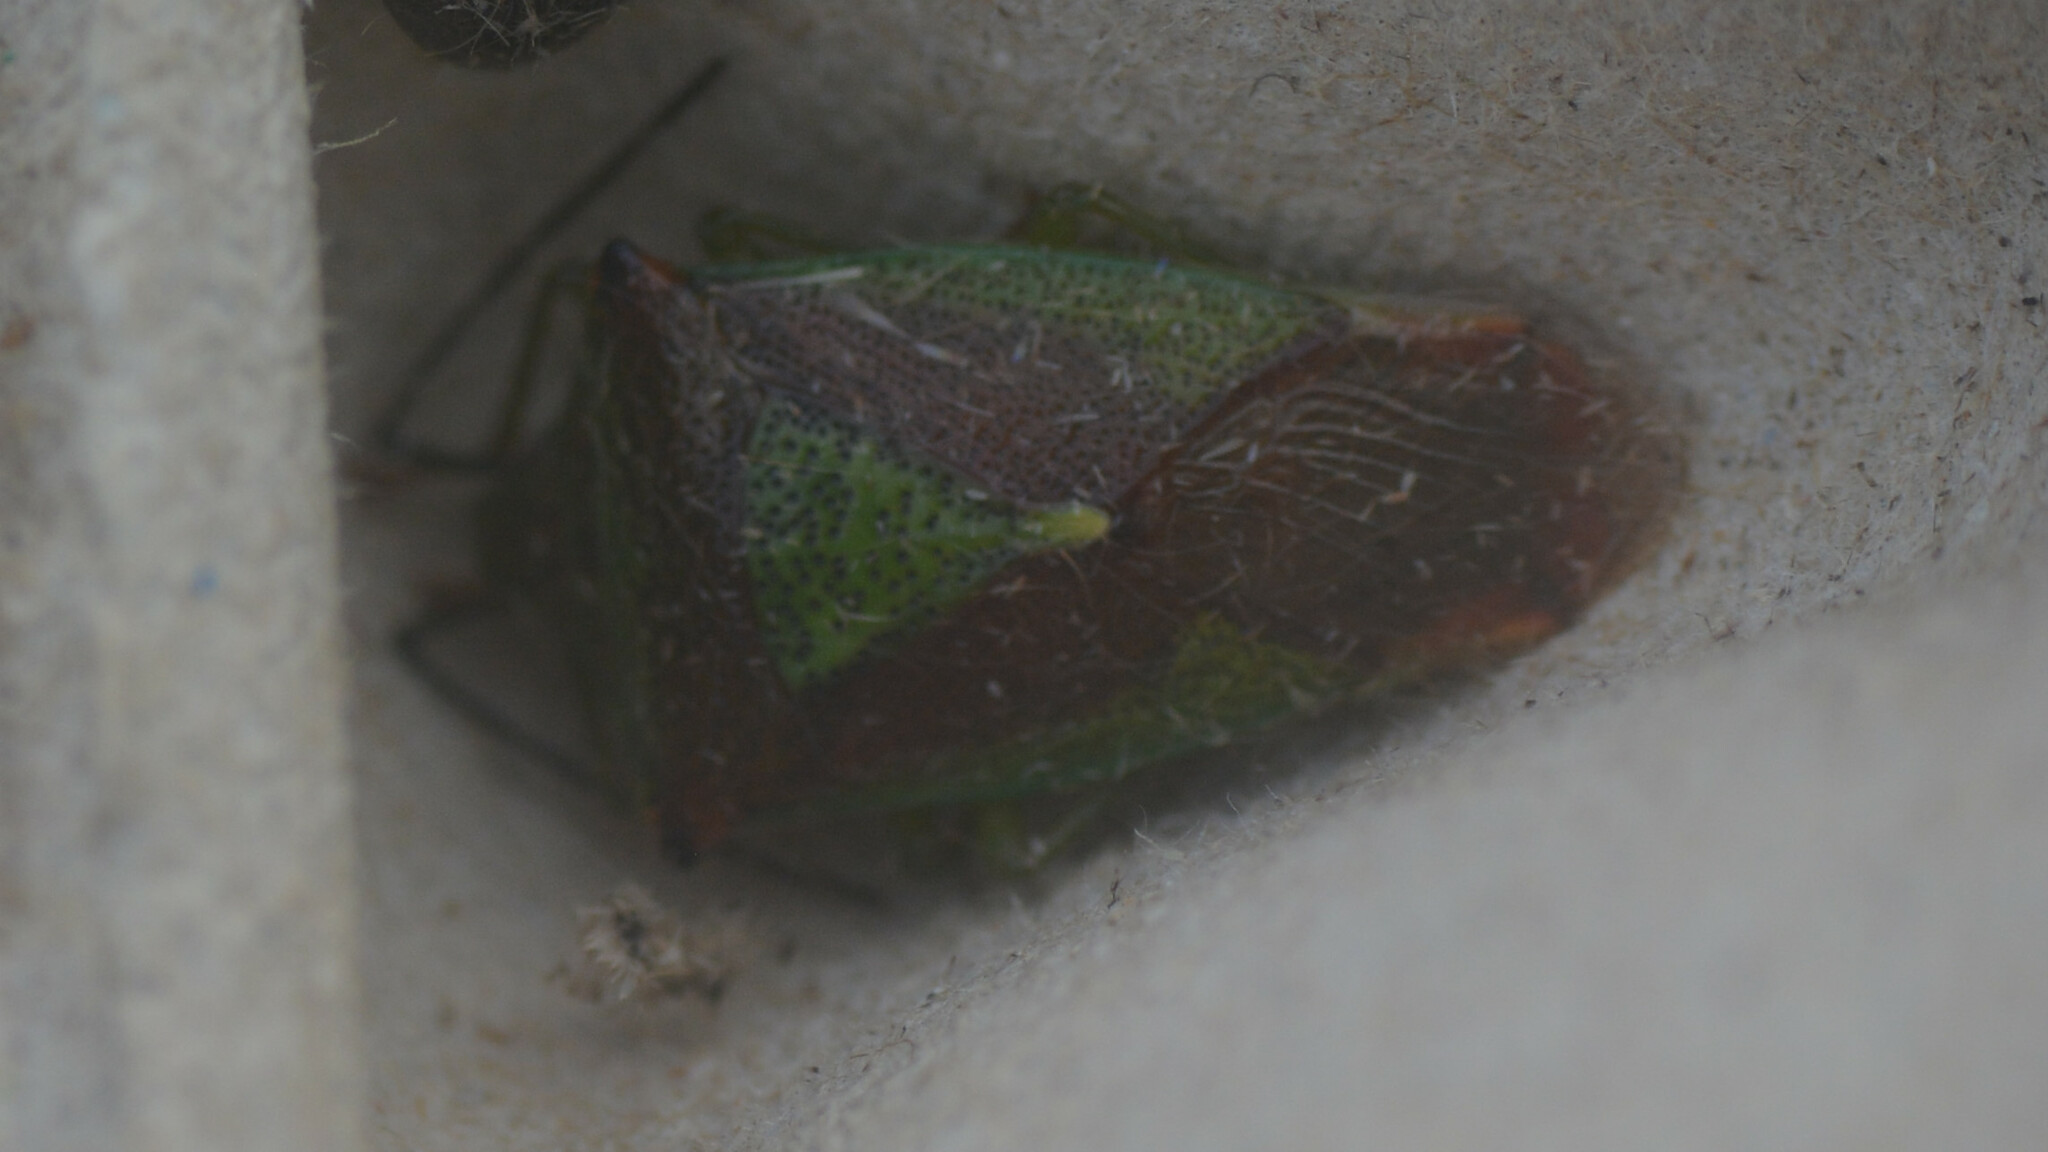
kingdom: Animalia
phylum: Arthropoda
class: Insecta
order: Hemiptera
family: Acanthosomatidae
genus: Acanthosoma
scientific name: Acanthosoma haemorrhoidale
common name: Hawthorn shieldbug
